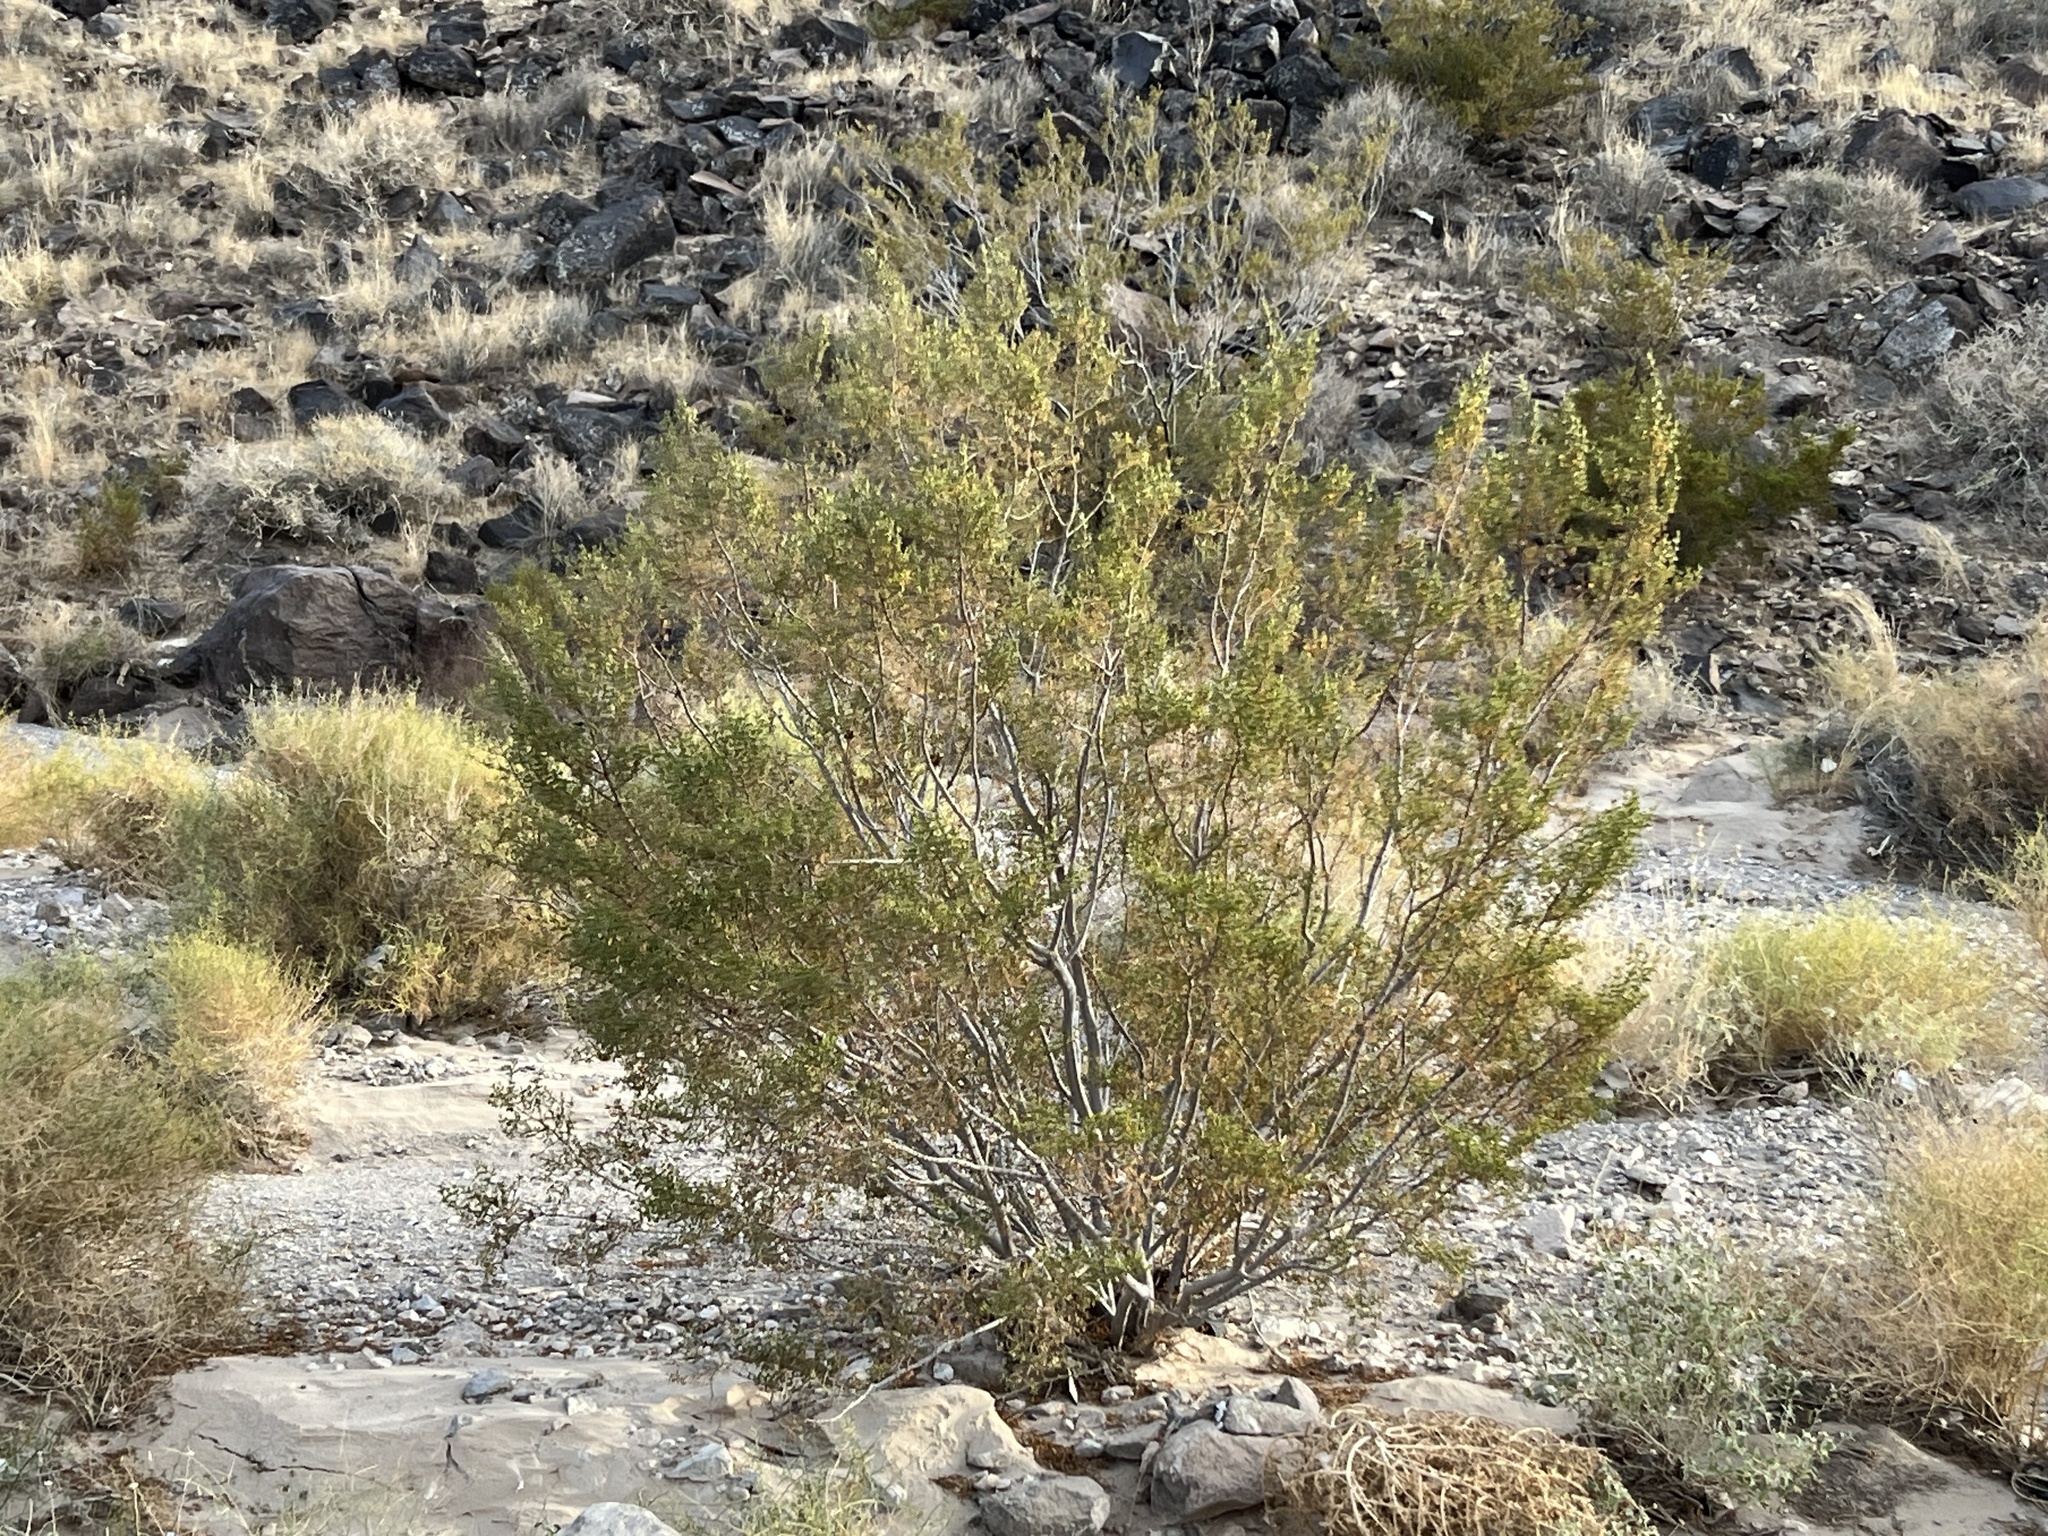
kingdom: Plantae
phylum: Tracheophyta
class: Magnoliopsida
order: Zygophyllales
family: Zygophyllaceae
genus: Larrea
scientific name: Larrea tridentata
